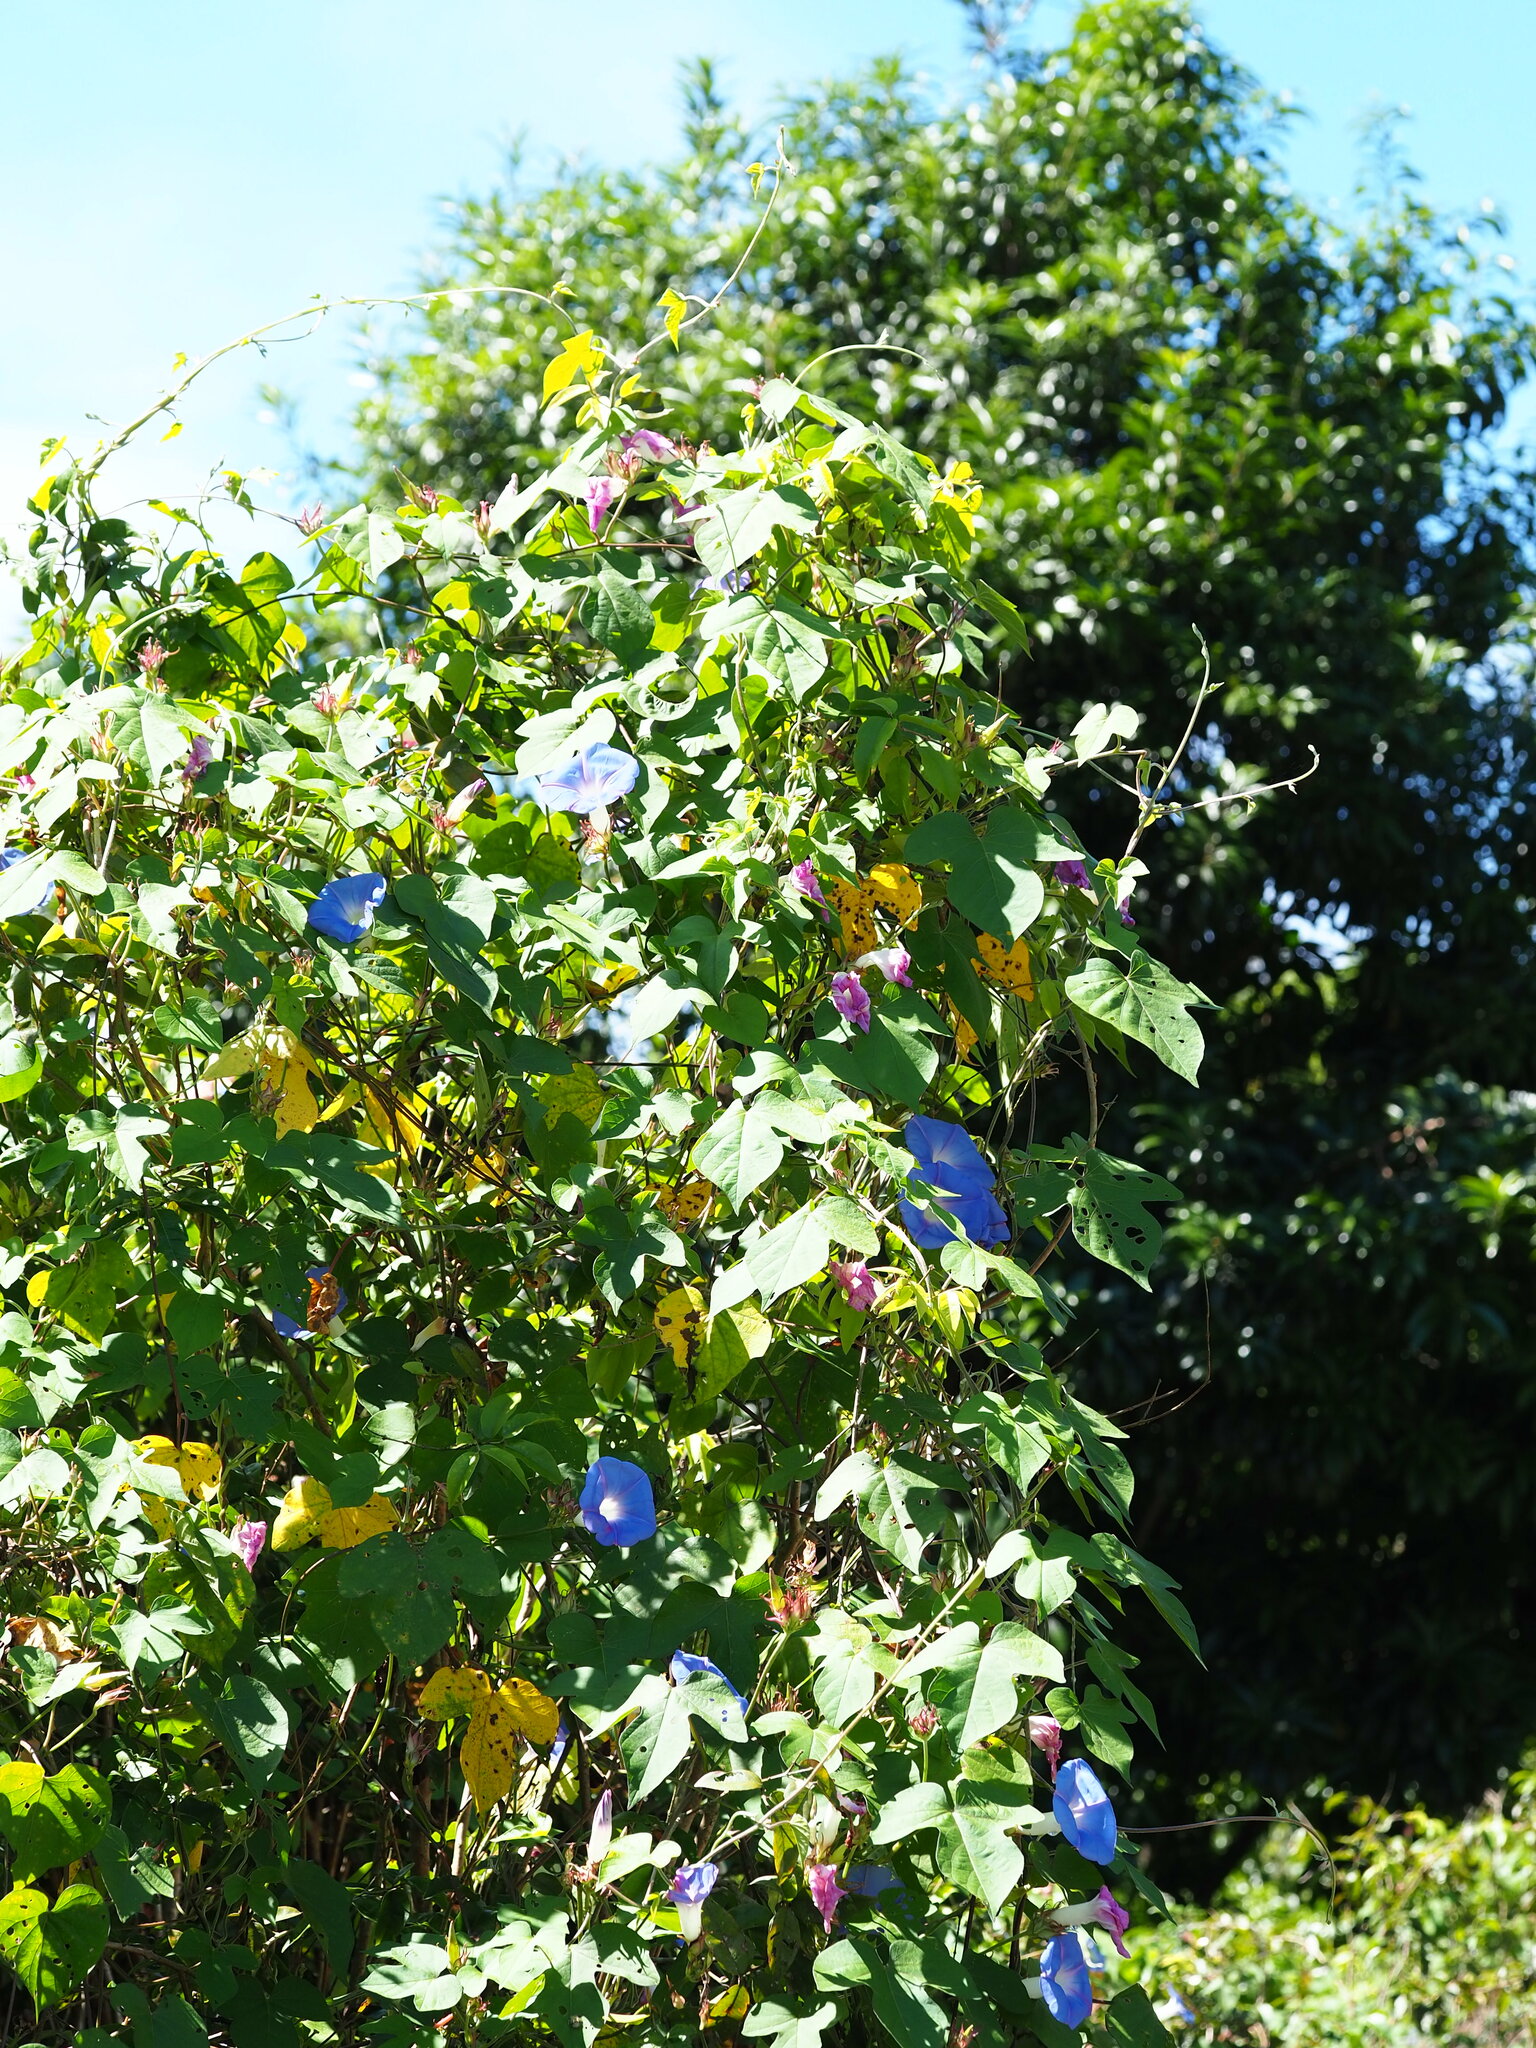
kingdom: Plantae
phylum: Tracheophyta
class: Magnoliopsida
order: Solanales
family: Convolvulaceae
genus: Ipomoea
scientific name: Ipomoea indica
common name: Blue dawnflower
